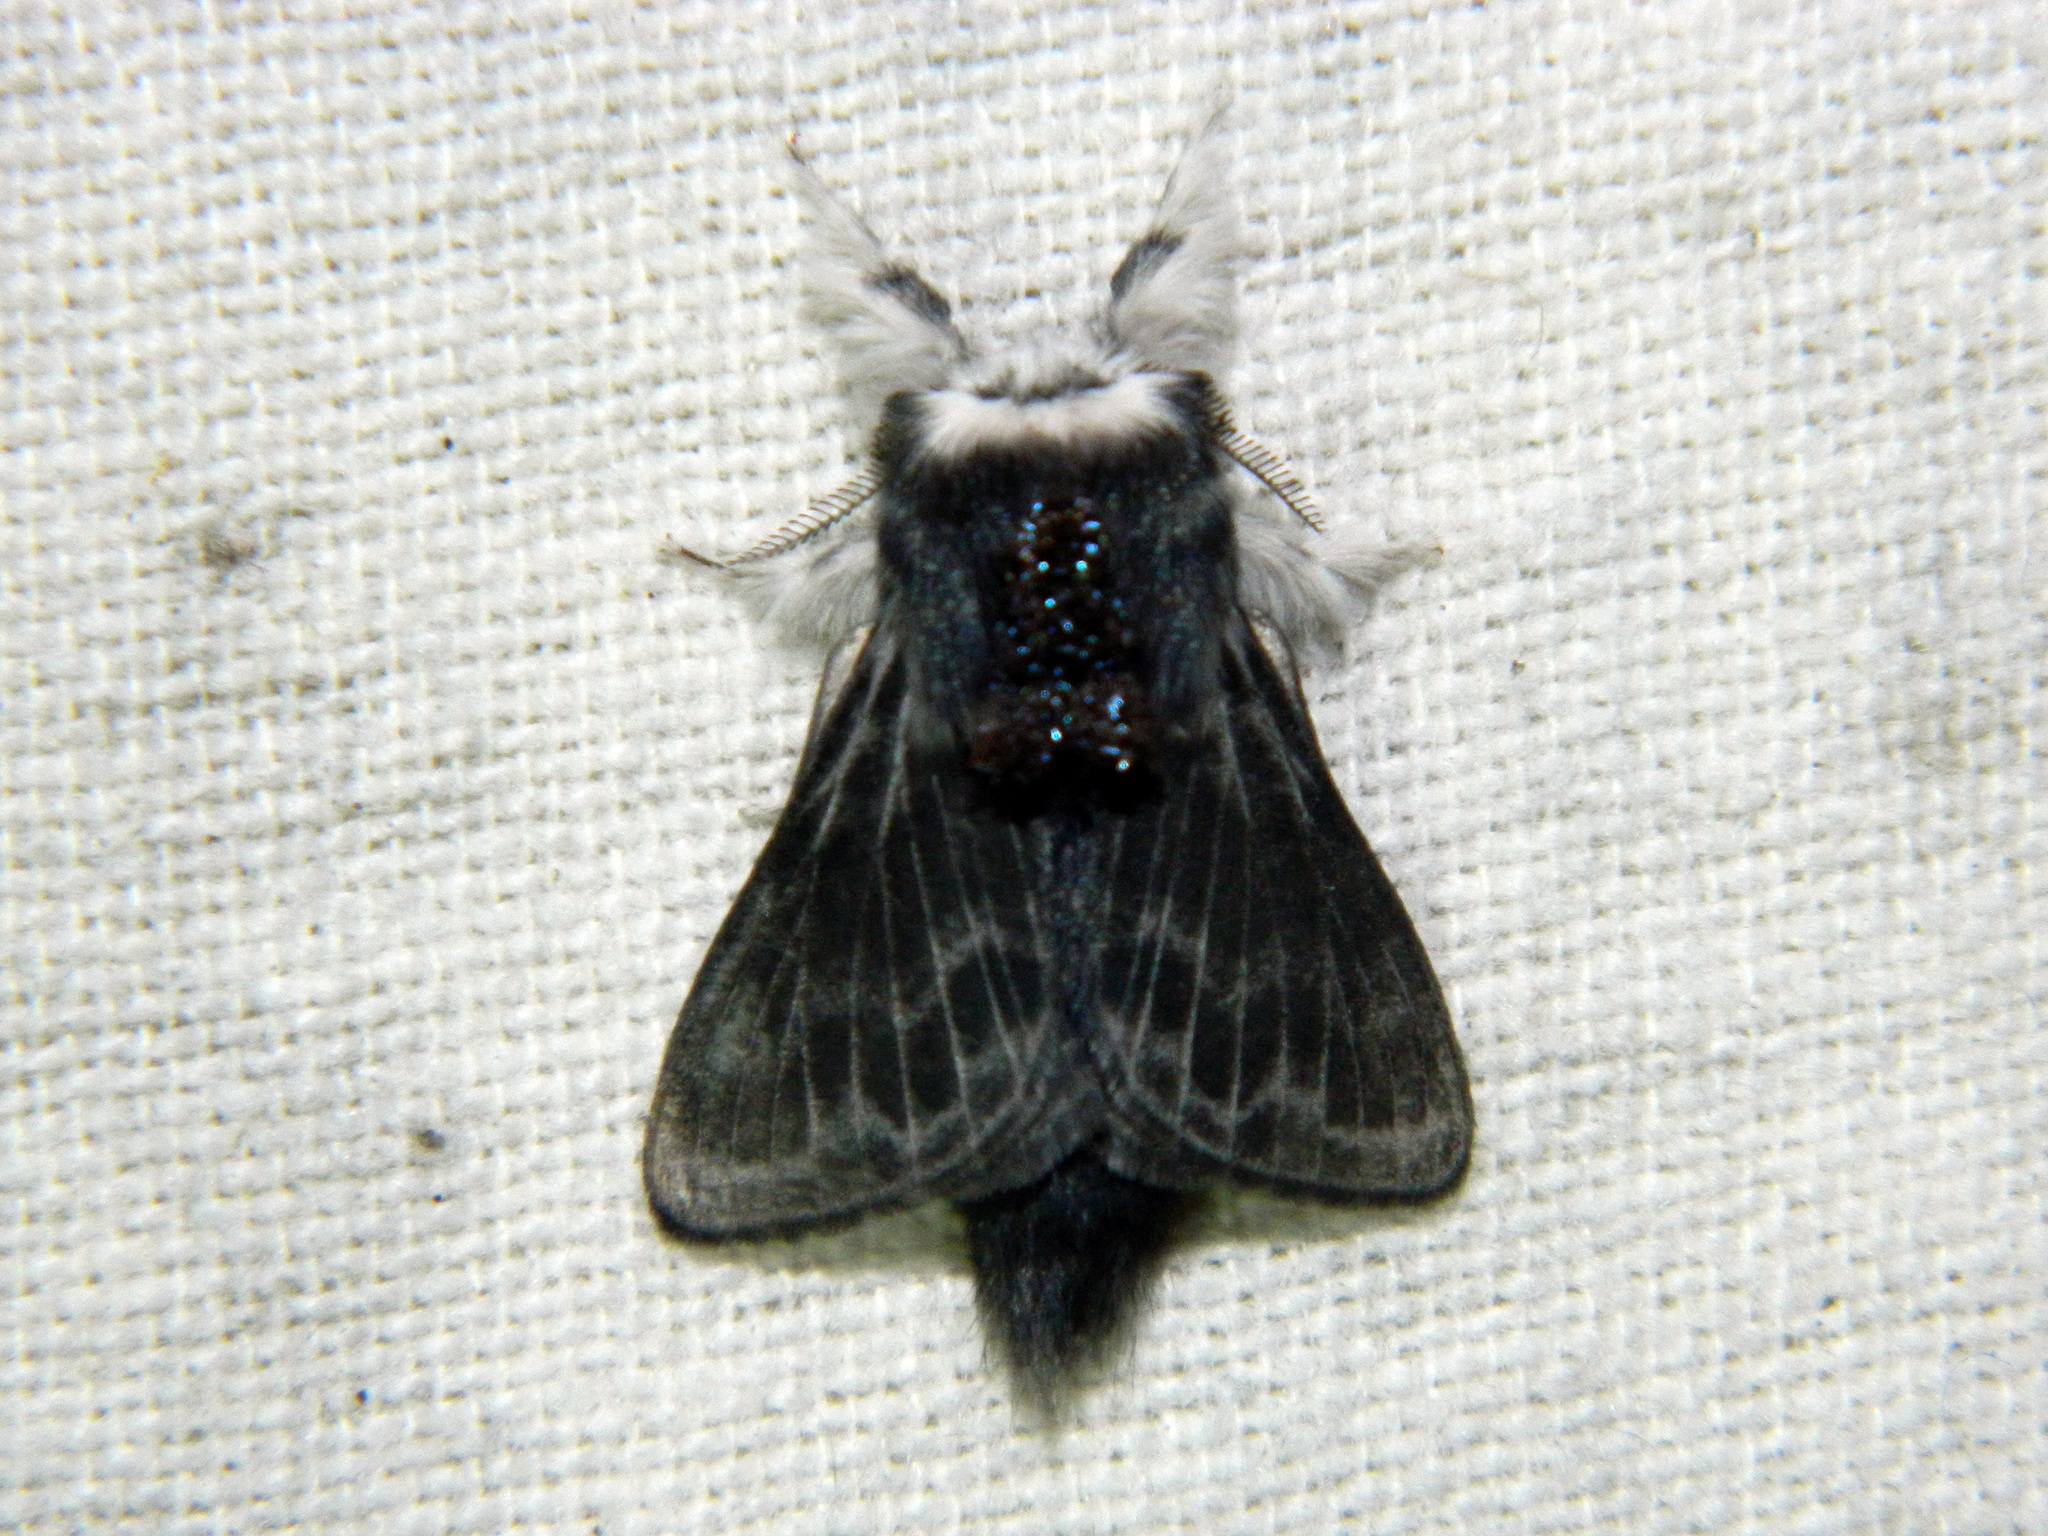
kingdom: Animalia
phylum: Arthropoda
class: Insecta
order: Lepidoptera
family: Lasiocampidae
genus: Tolype
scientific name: Tolype laricis
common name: Larch tolype moth
